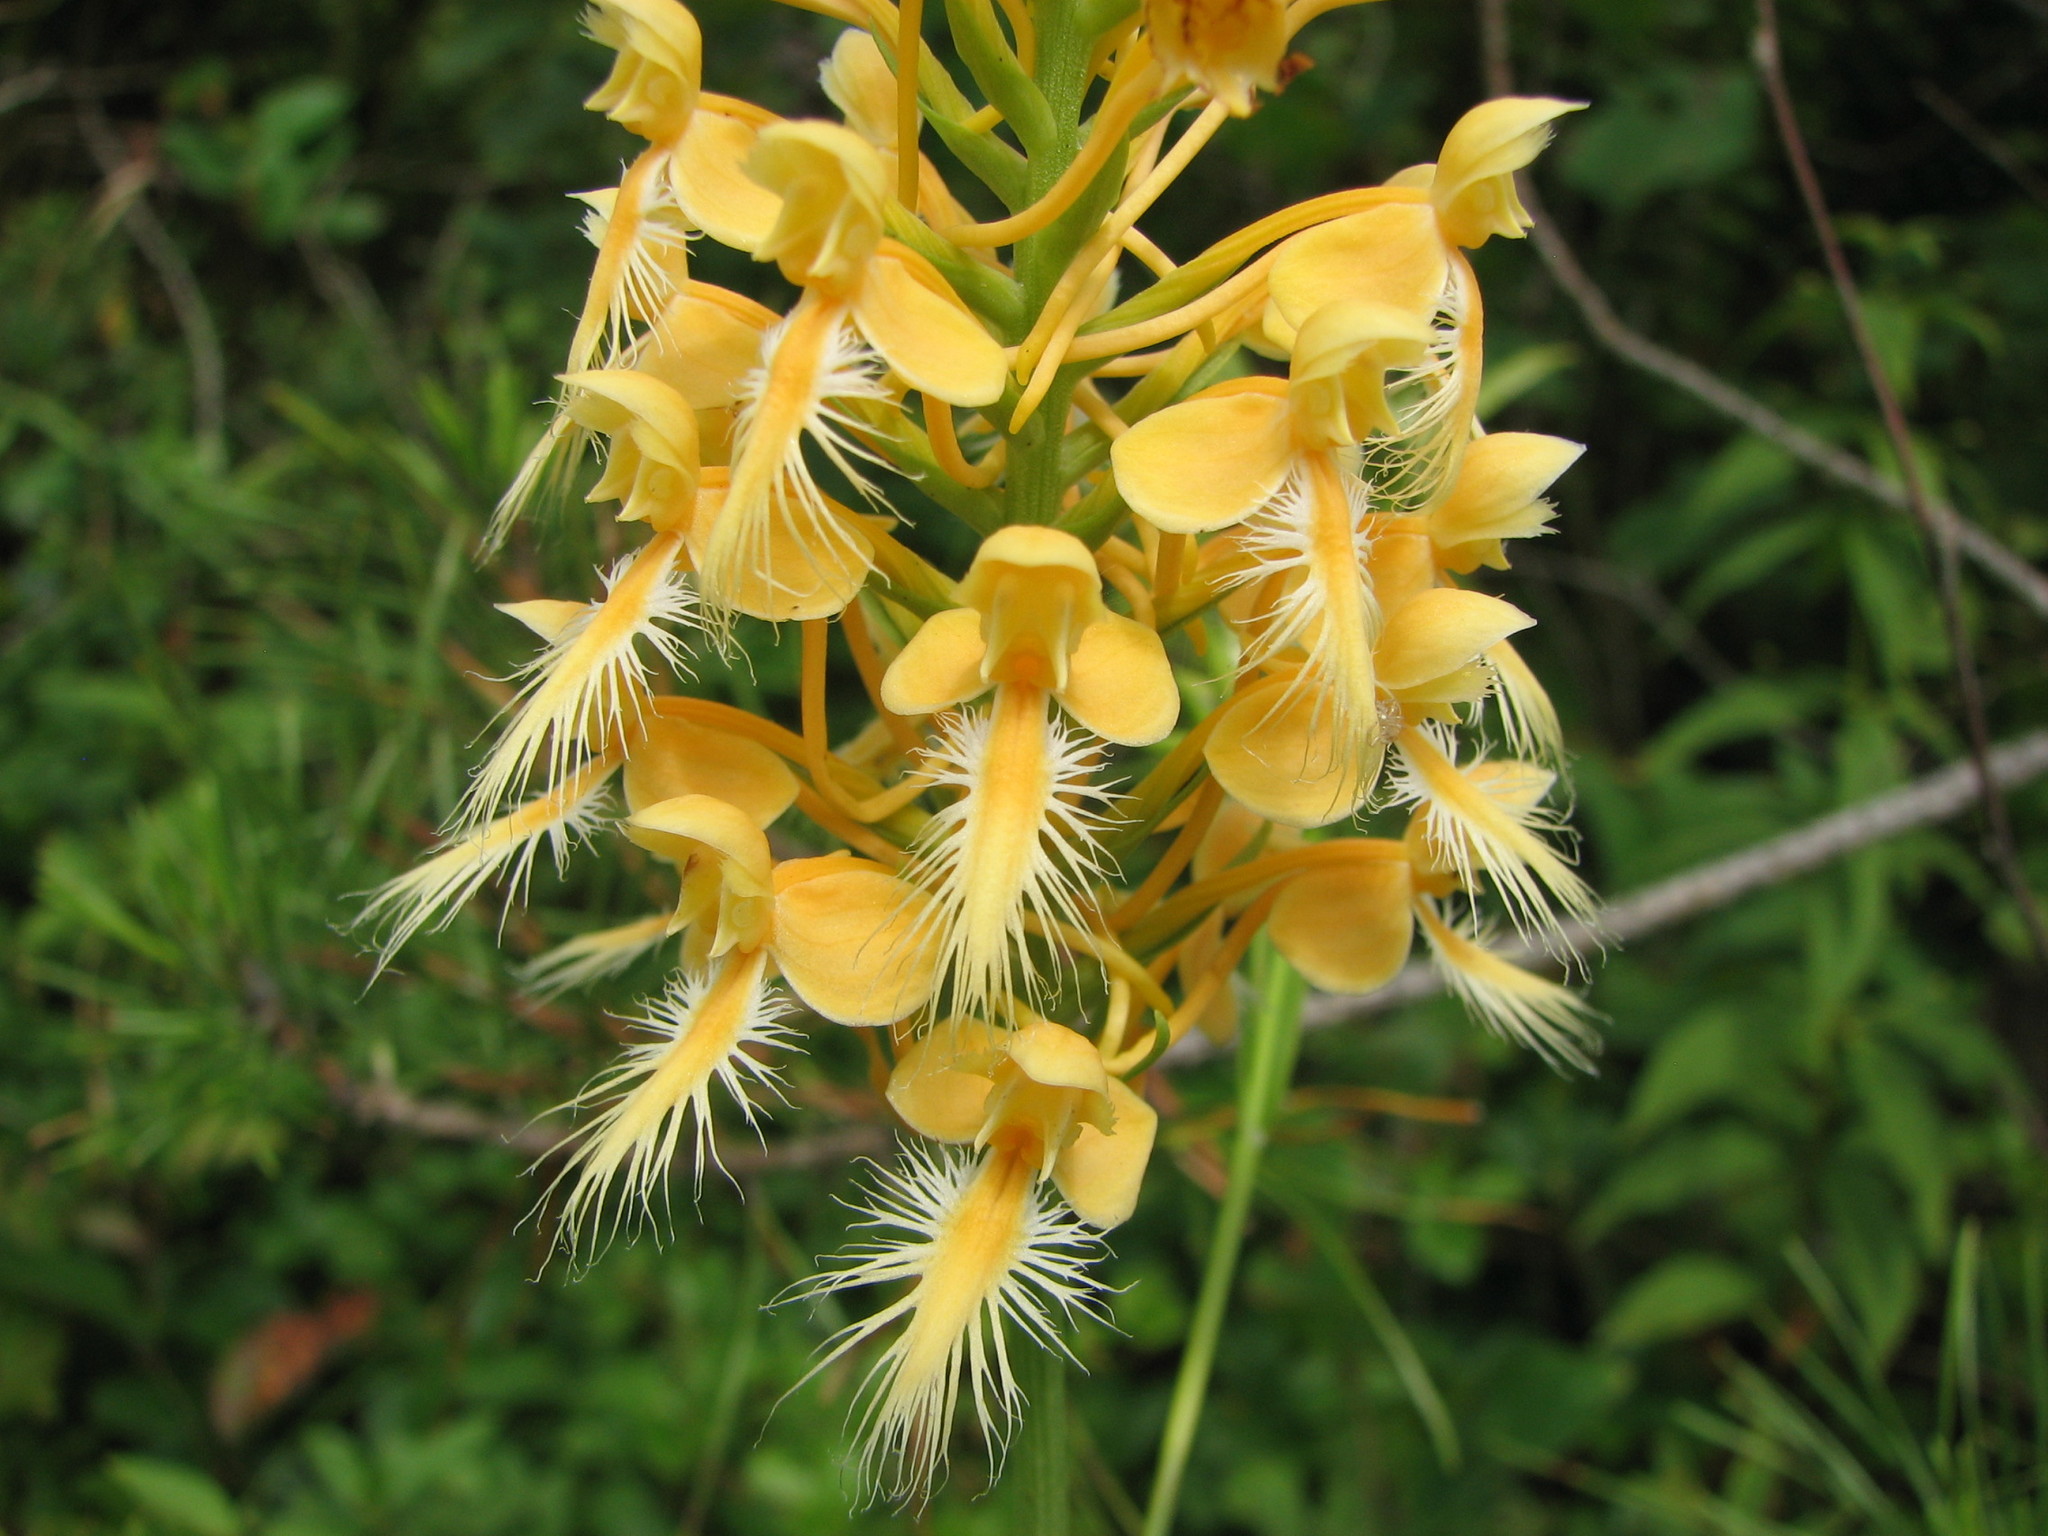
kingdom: Plantae
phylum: Tracheophyta
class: Liliopsida
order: Asparagales
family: Orchidaceae
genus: Platanthera
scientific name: Platanthera bicolor
